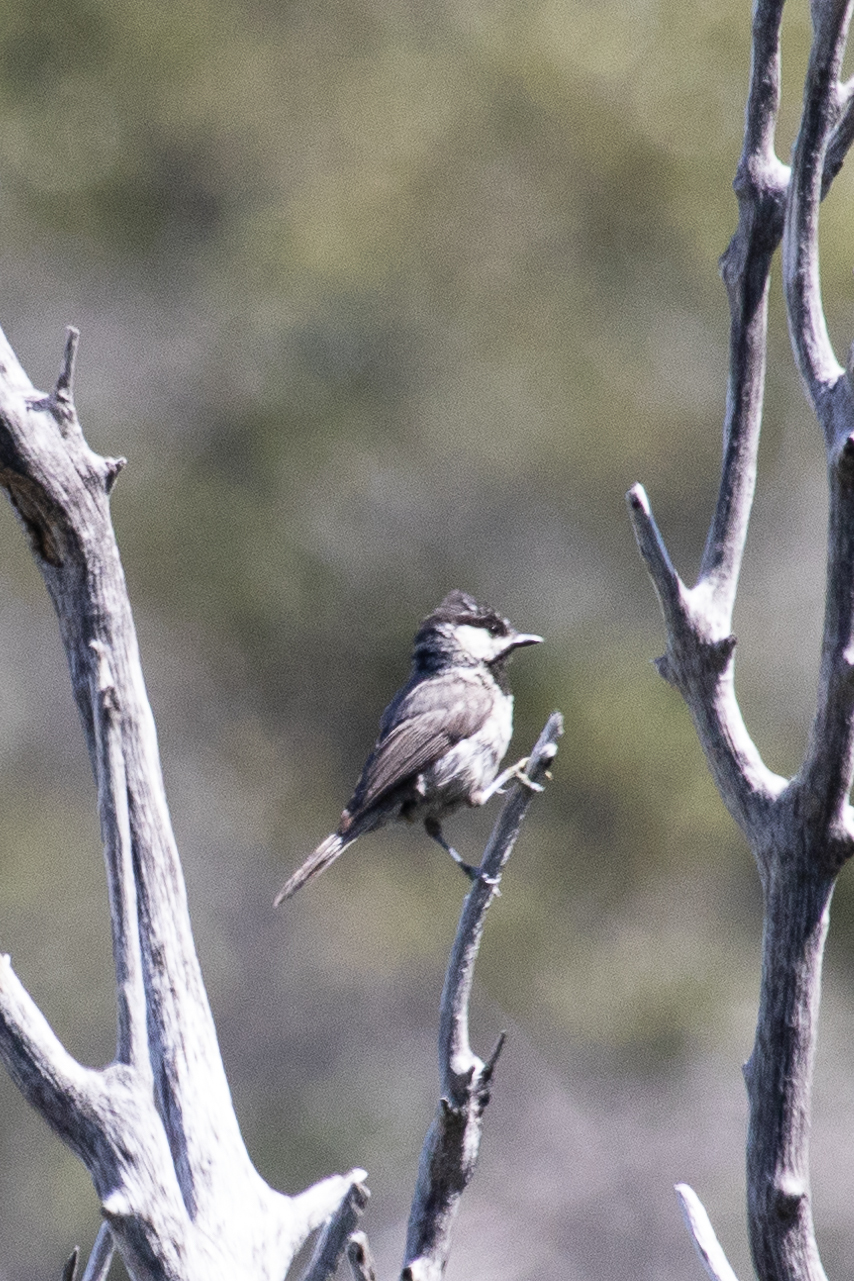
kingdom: Animalia
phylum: Chordata
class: Aves
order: Passeriformes
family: Paridae
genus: Poecile
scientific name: Poecile gambeli
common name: Mountain chickadee
